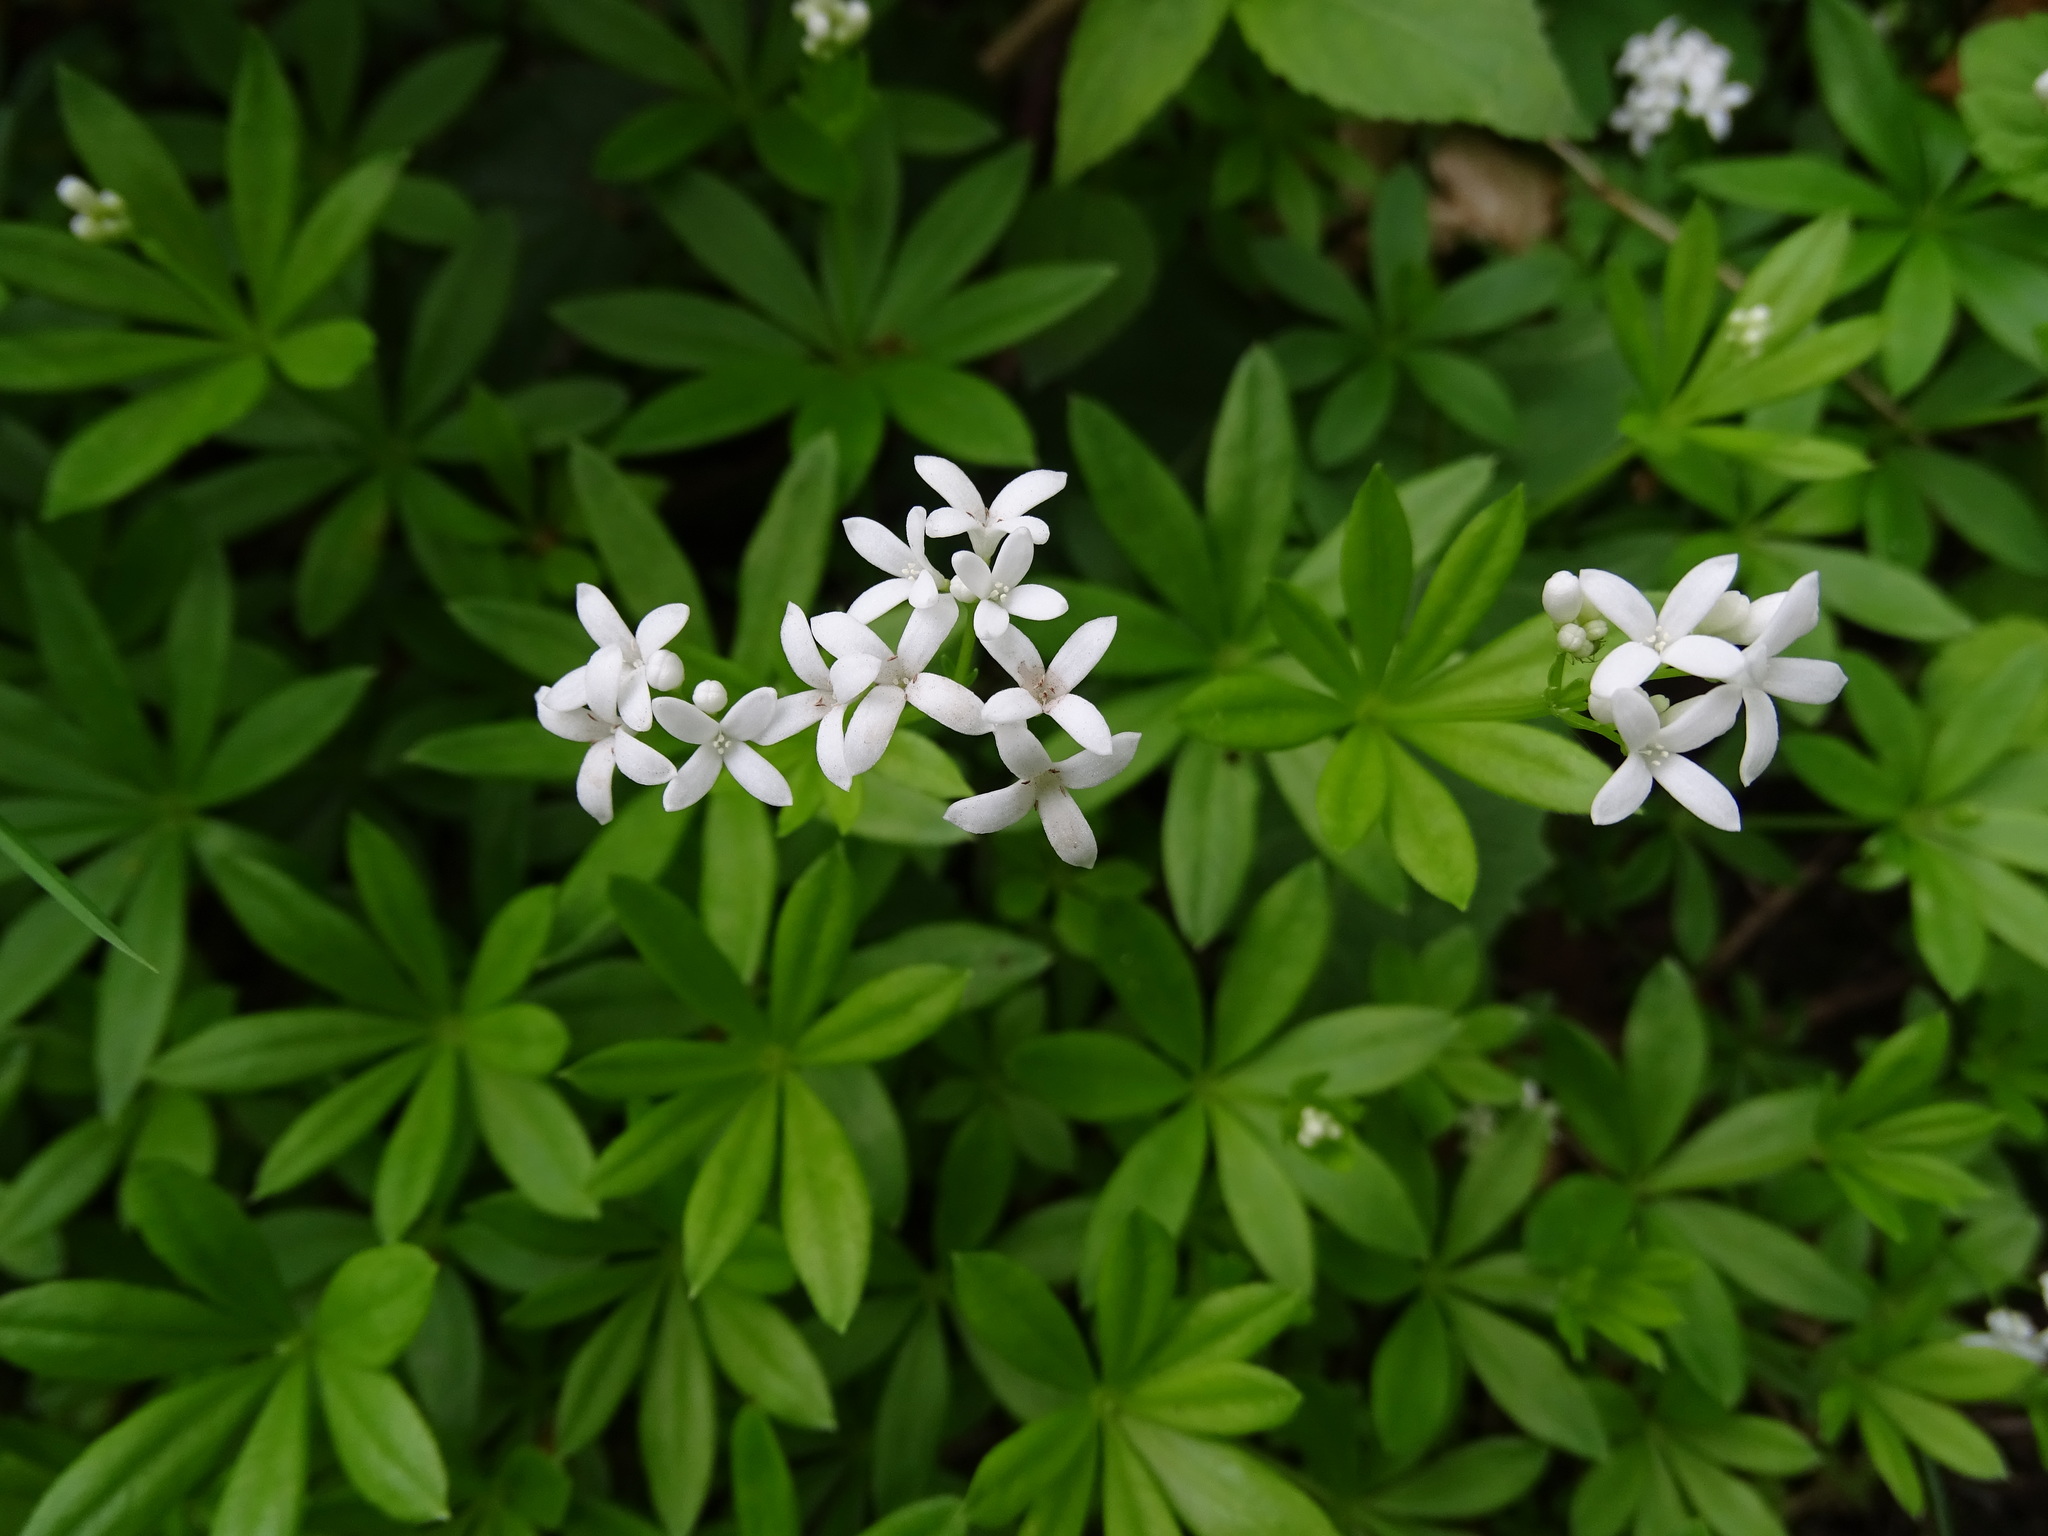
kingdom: Plantae
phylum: Tracheophyta
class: Magnoliopsida
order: Gentianales
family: Rubiaceae
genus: Galium
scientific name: Galium odoratum
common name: Sweet woodruff
